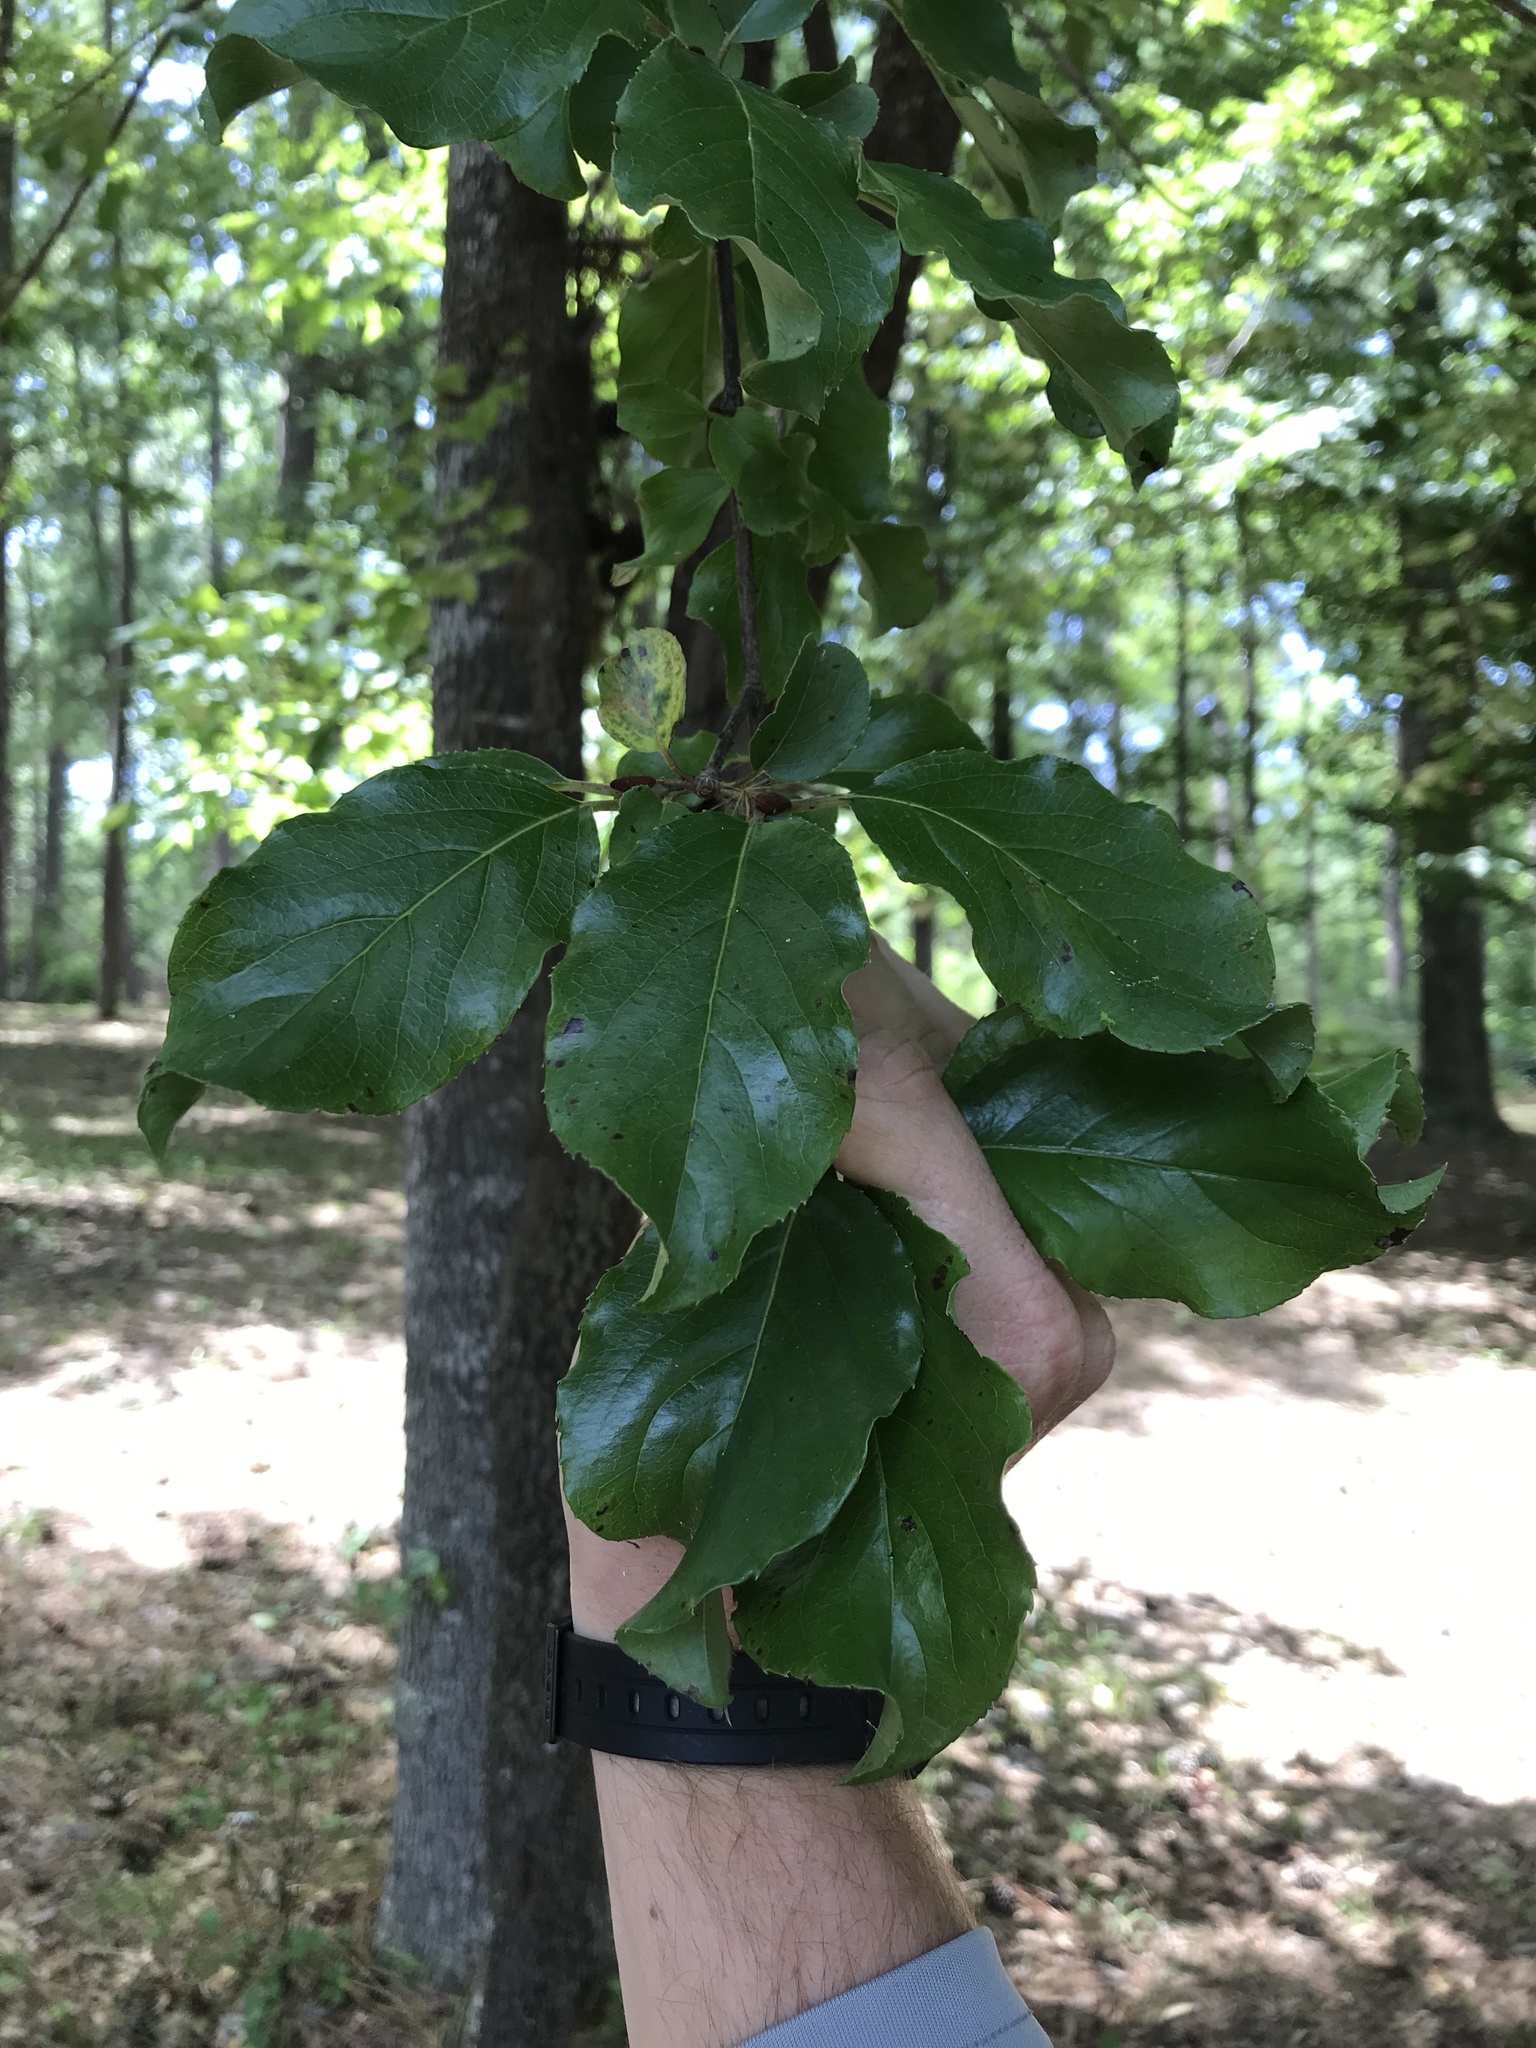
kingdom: Plantae
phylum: Tracheophyta
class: Magnoliopsida
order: Dipsacales
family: Viburnaceae
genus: Viburnum
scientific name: Viburnum rufidulum
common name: Blue haw
